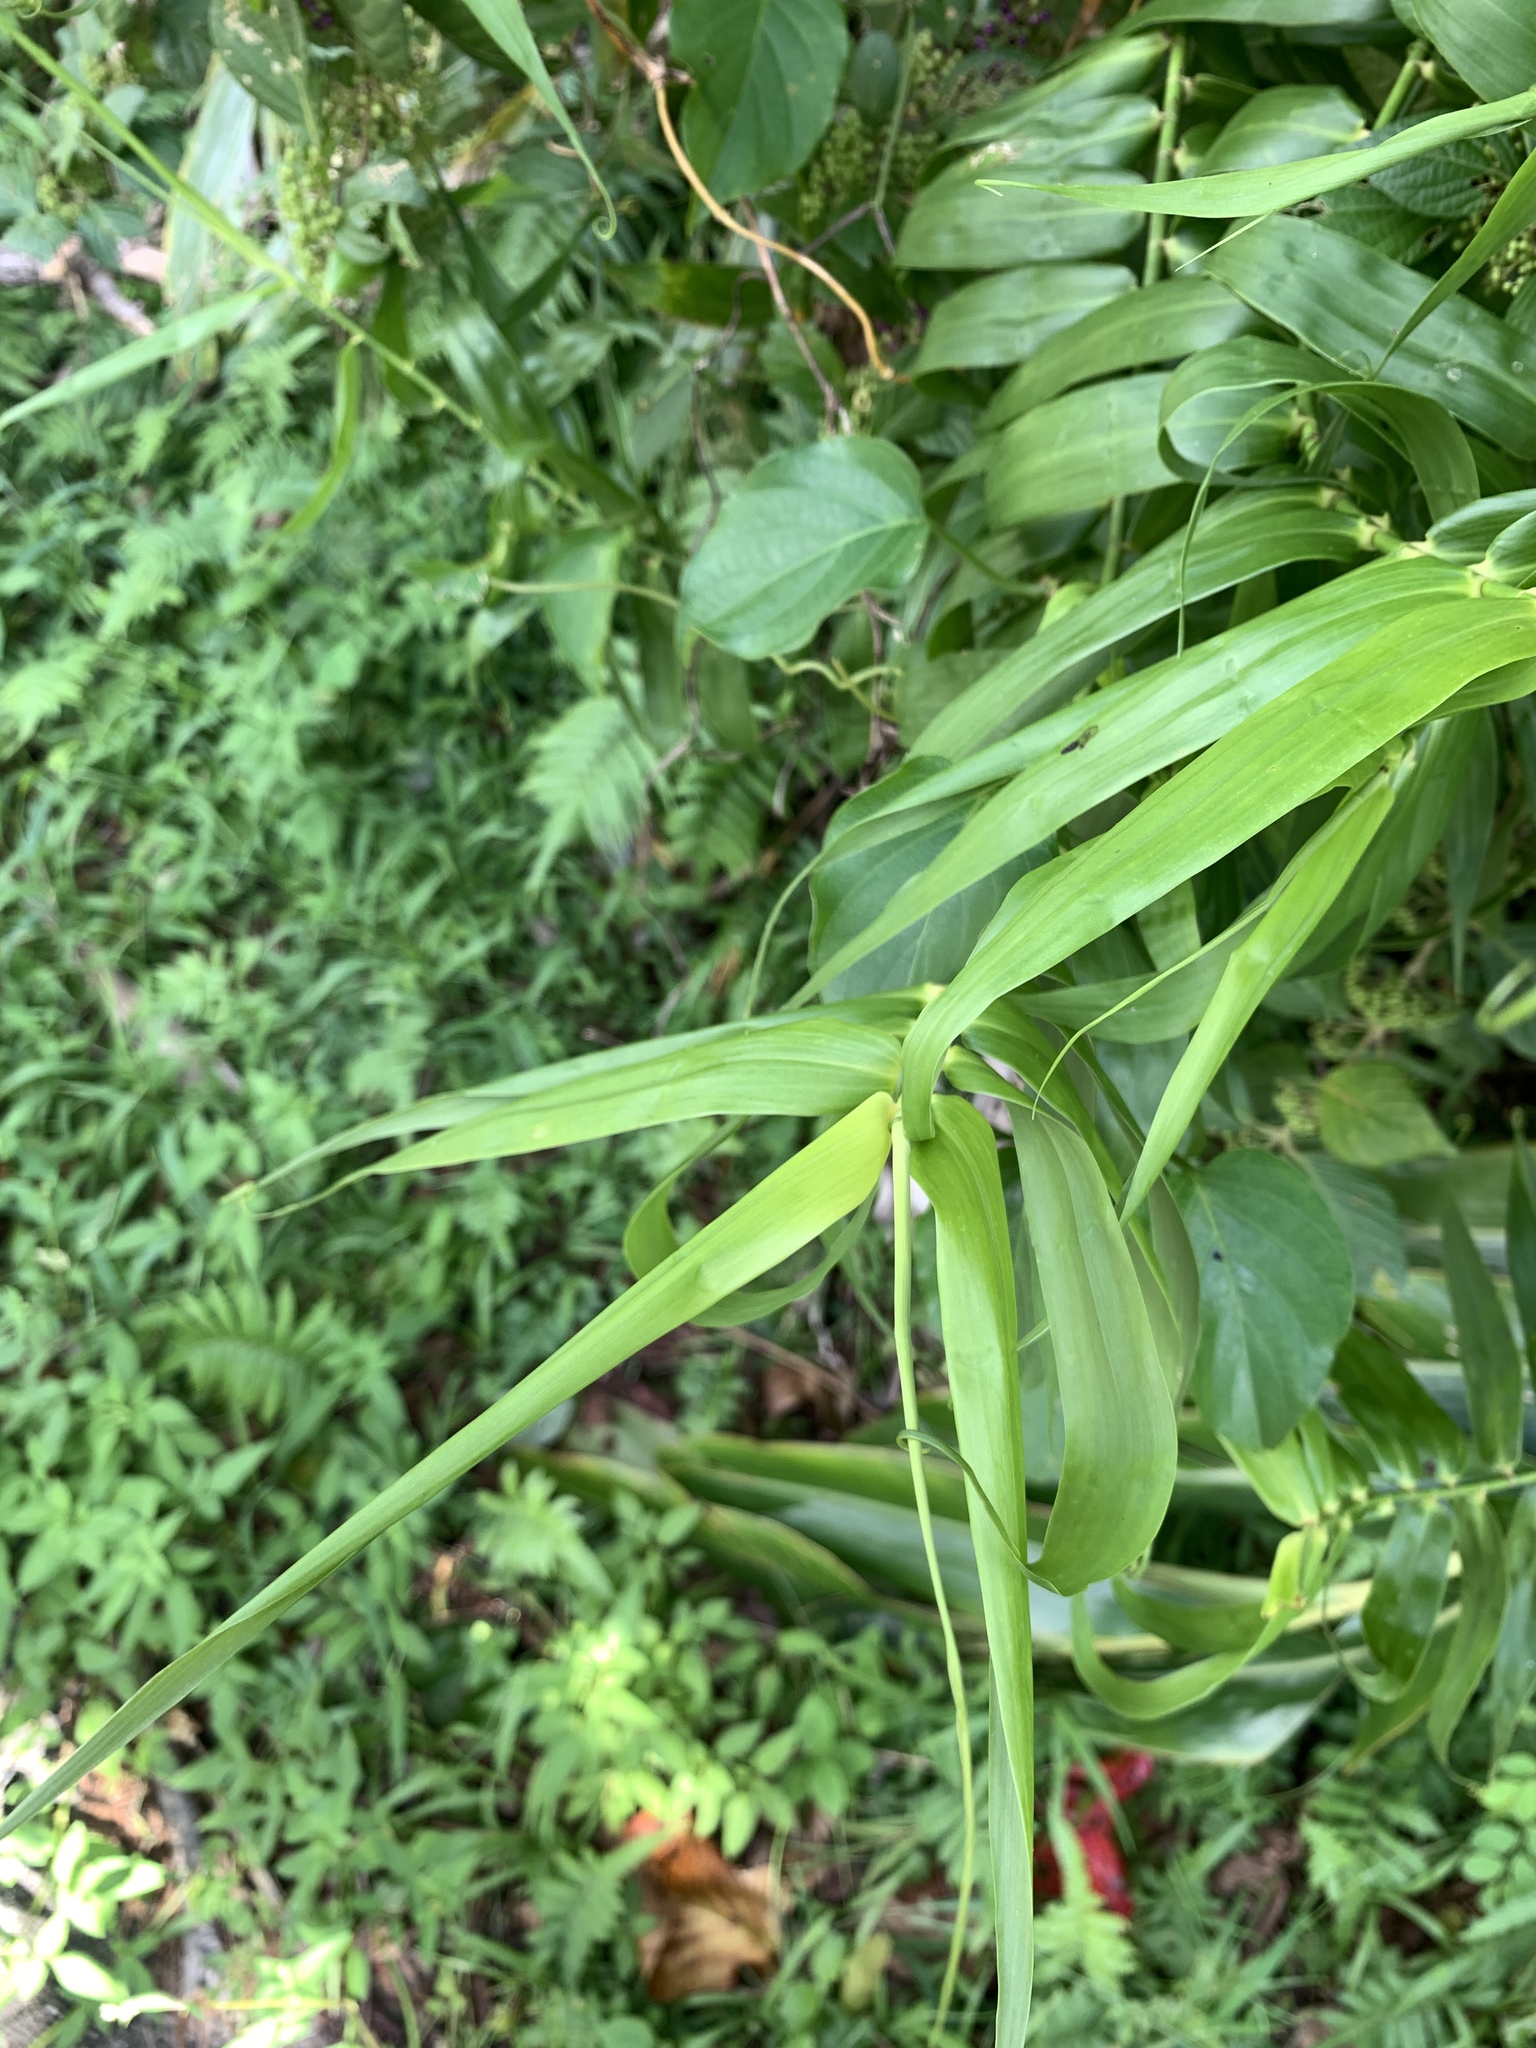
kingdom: Plantae
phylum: Tracheophyta
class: Liliopsida
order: Poales
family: Flagellariaceae
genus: Flagellaria
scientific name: Flagellaria indica
